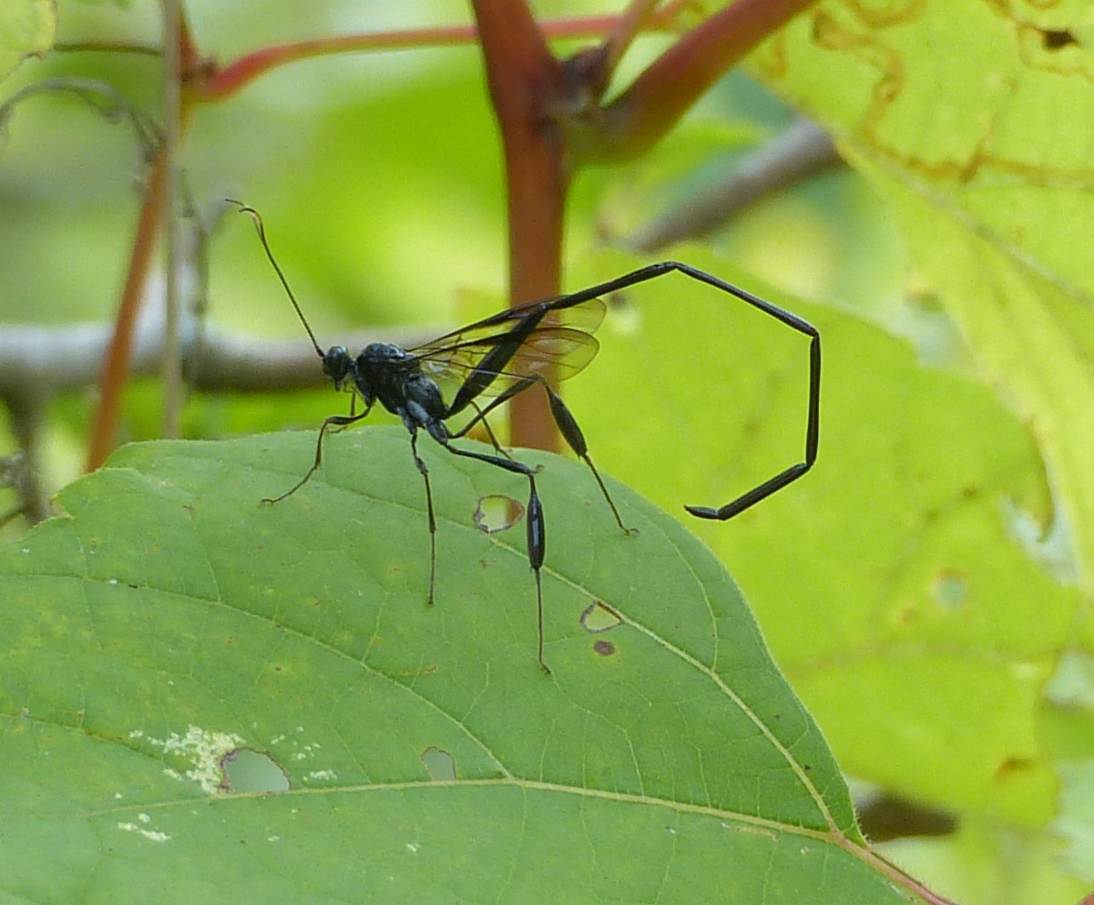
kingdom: Animalia
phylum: Arthropoda
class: Insecta
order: Hymenoptera
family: Pelecinidae
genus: Pelecinus
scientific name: Pelecinus polyturator
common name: American pelecinid wasp
